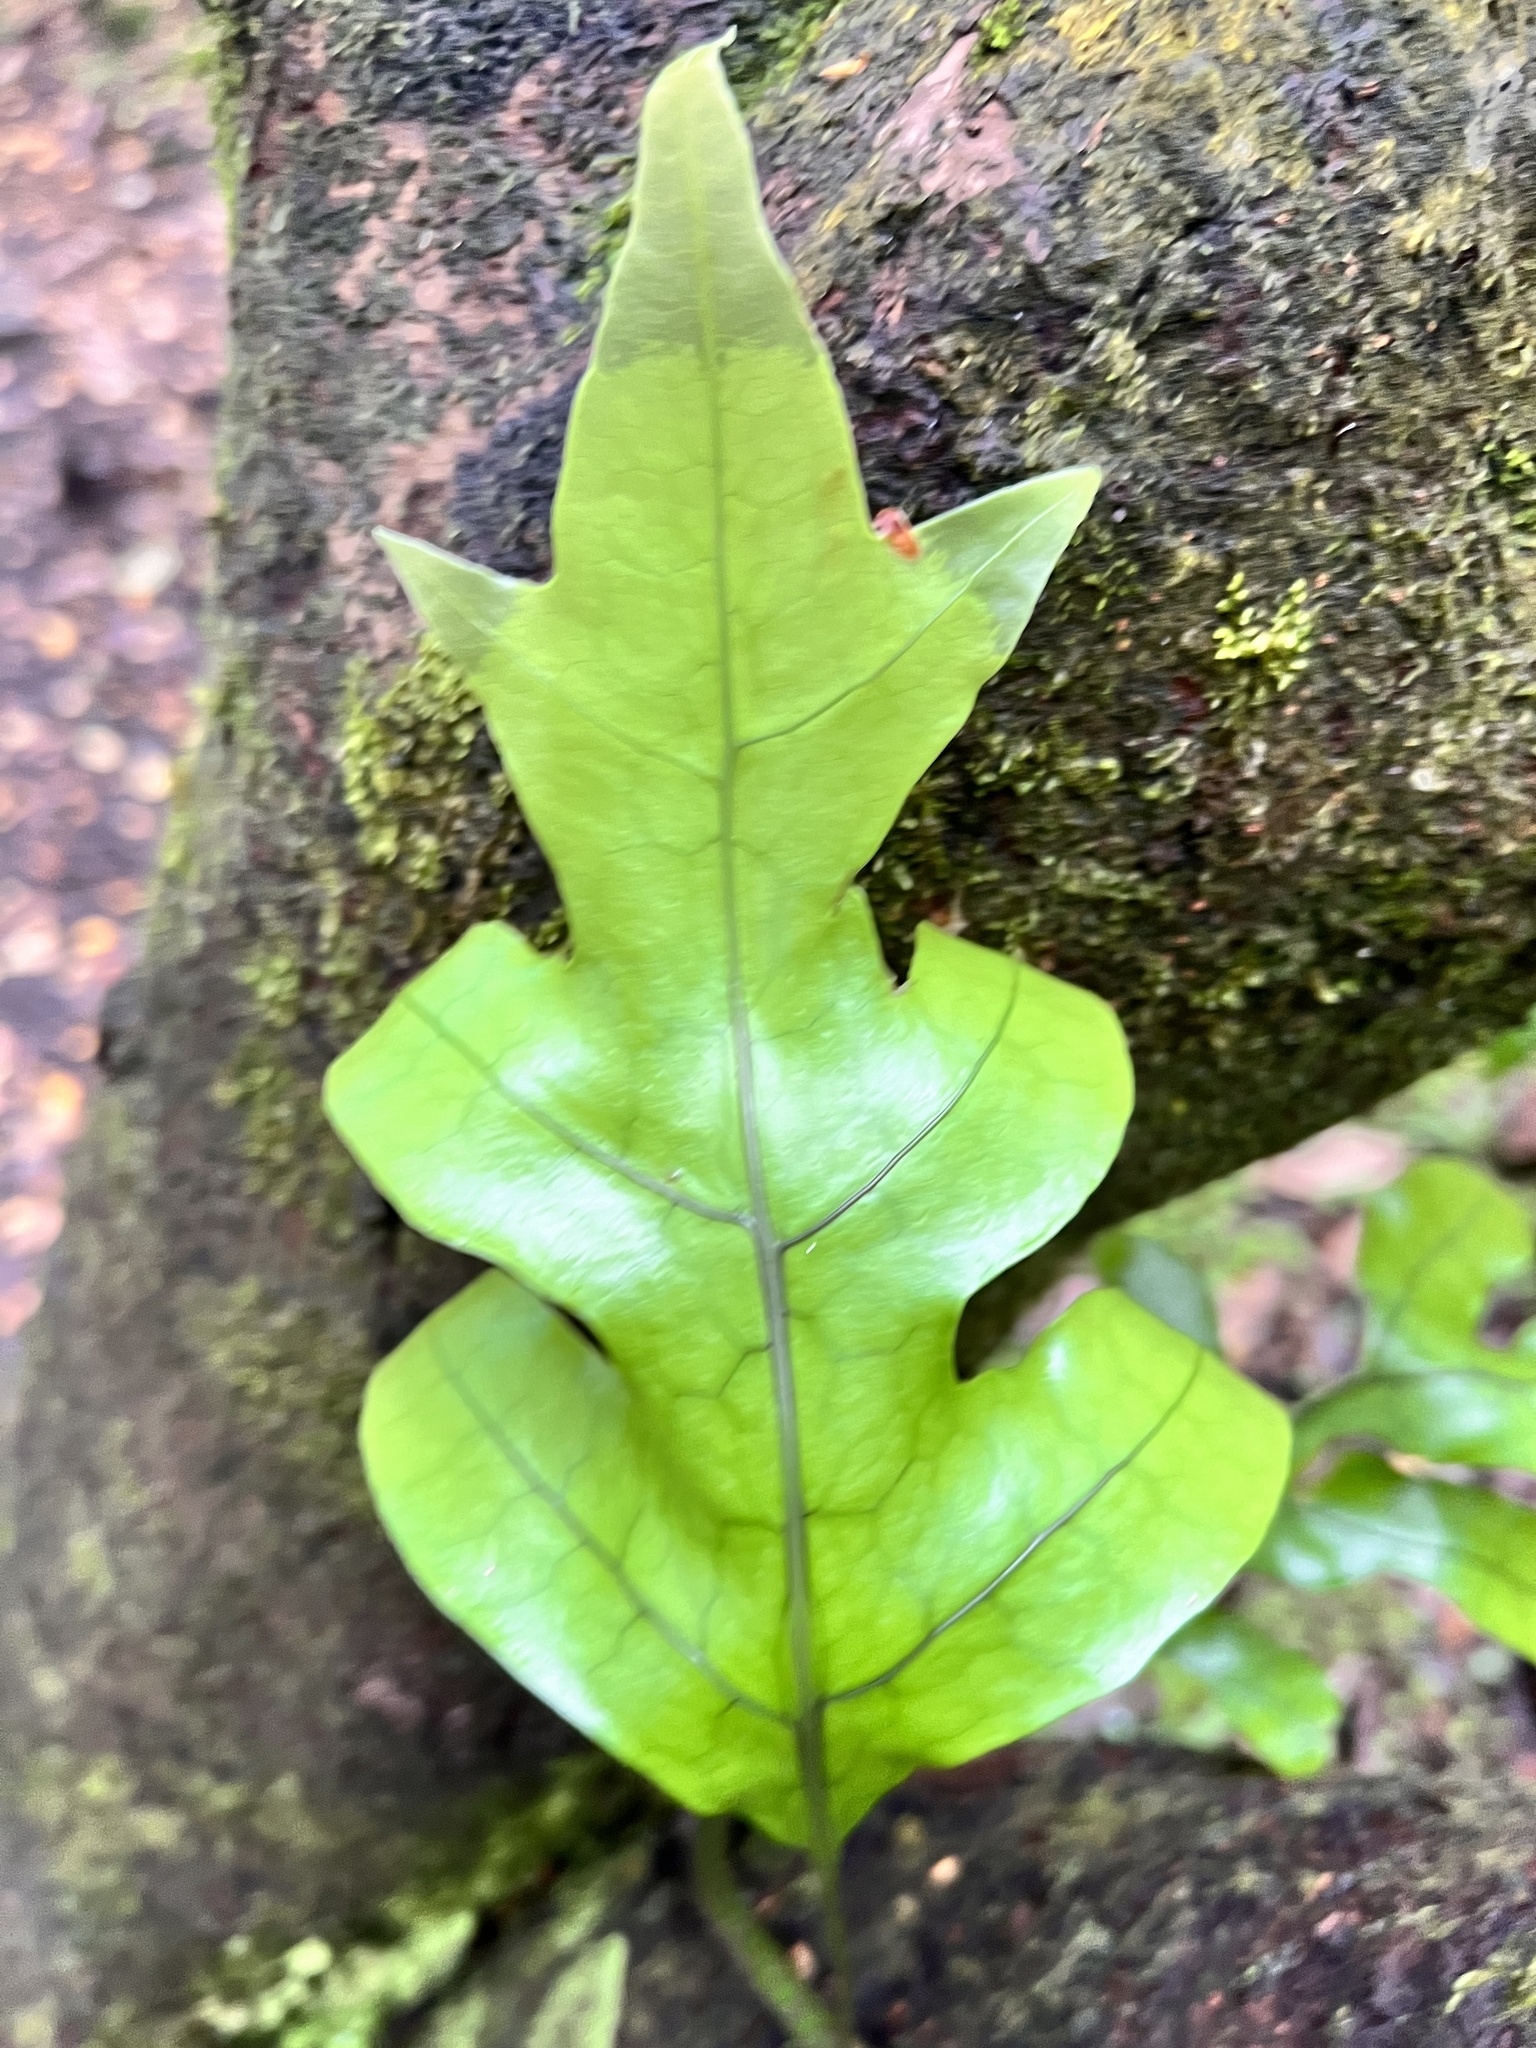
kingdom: Plantae
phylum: Tracheophyta
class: Polypodiopsida
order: Polypodiales
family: Polypodiaceae
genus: Lecanopteris
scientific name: Lecanopteris pustulata
